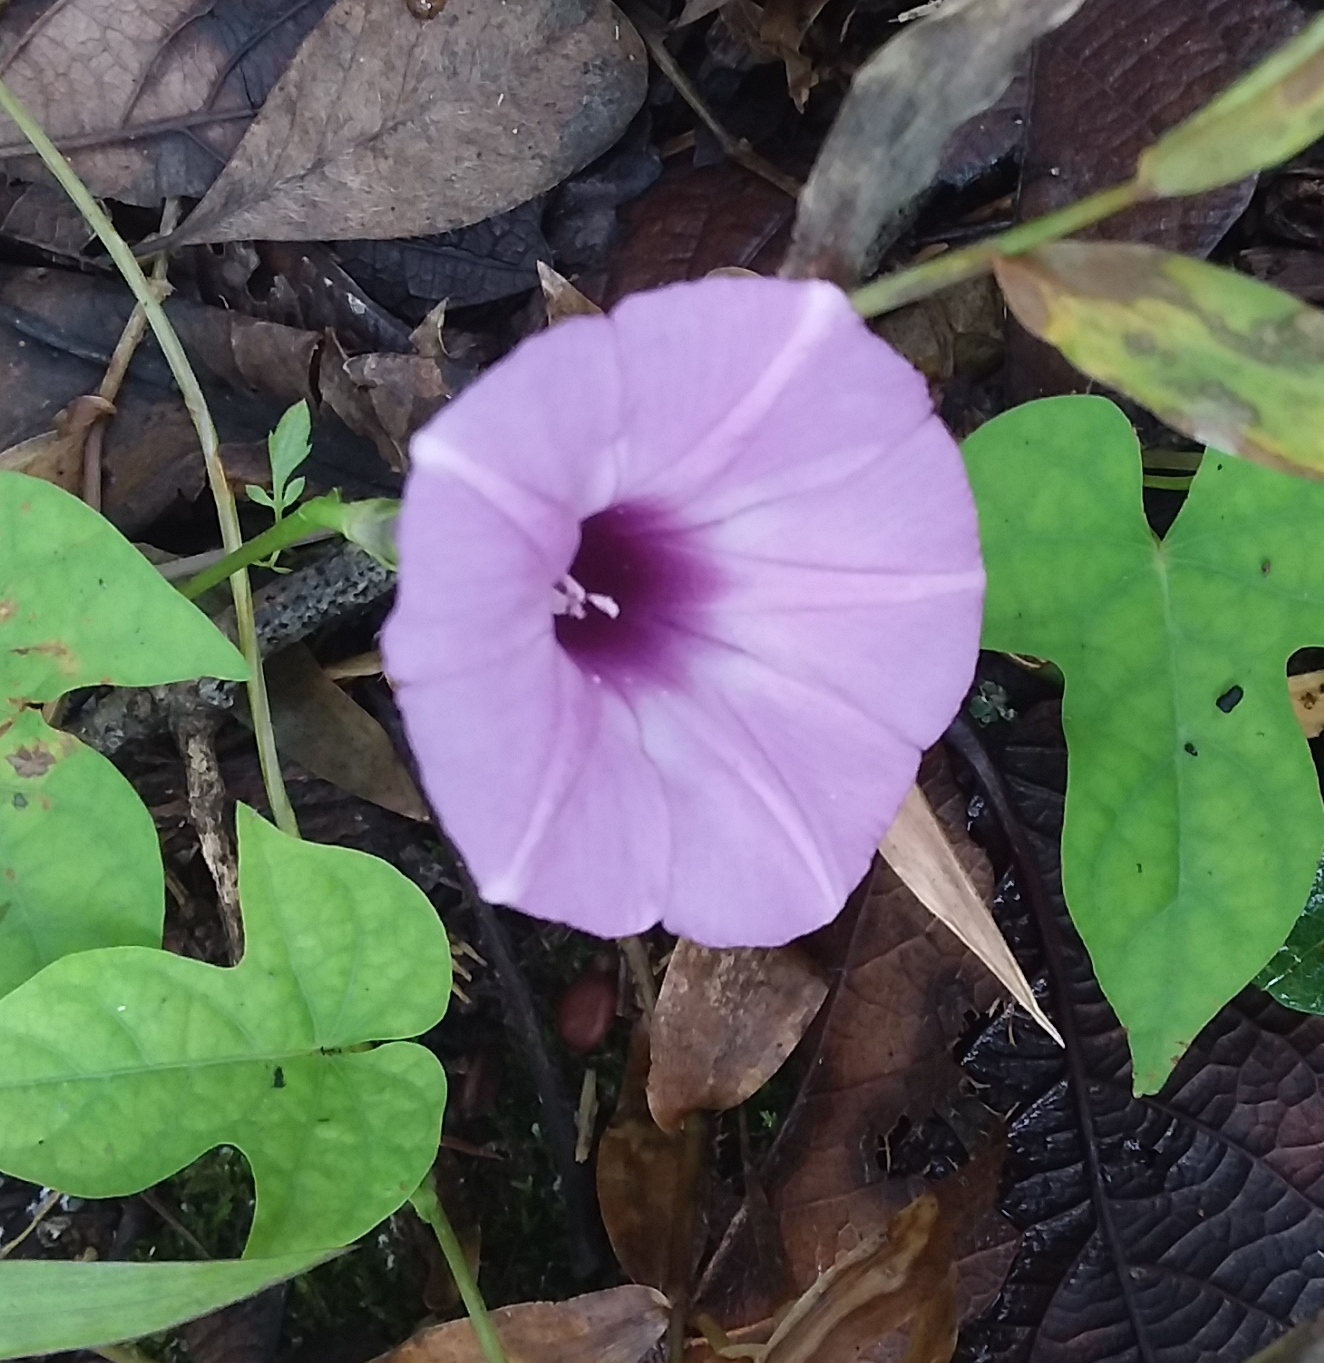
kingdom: Plantae
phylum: Tracheophyta
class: Magnoliopsida
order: Solanales
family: Convolvulaceae
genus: Ipomoea
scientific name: Ipomoea cordatotriloba
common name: Cotton morning glory
